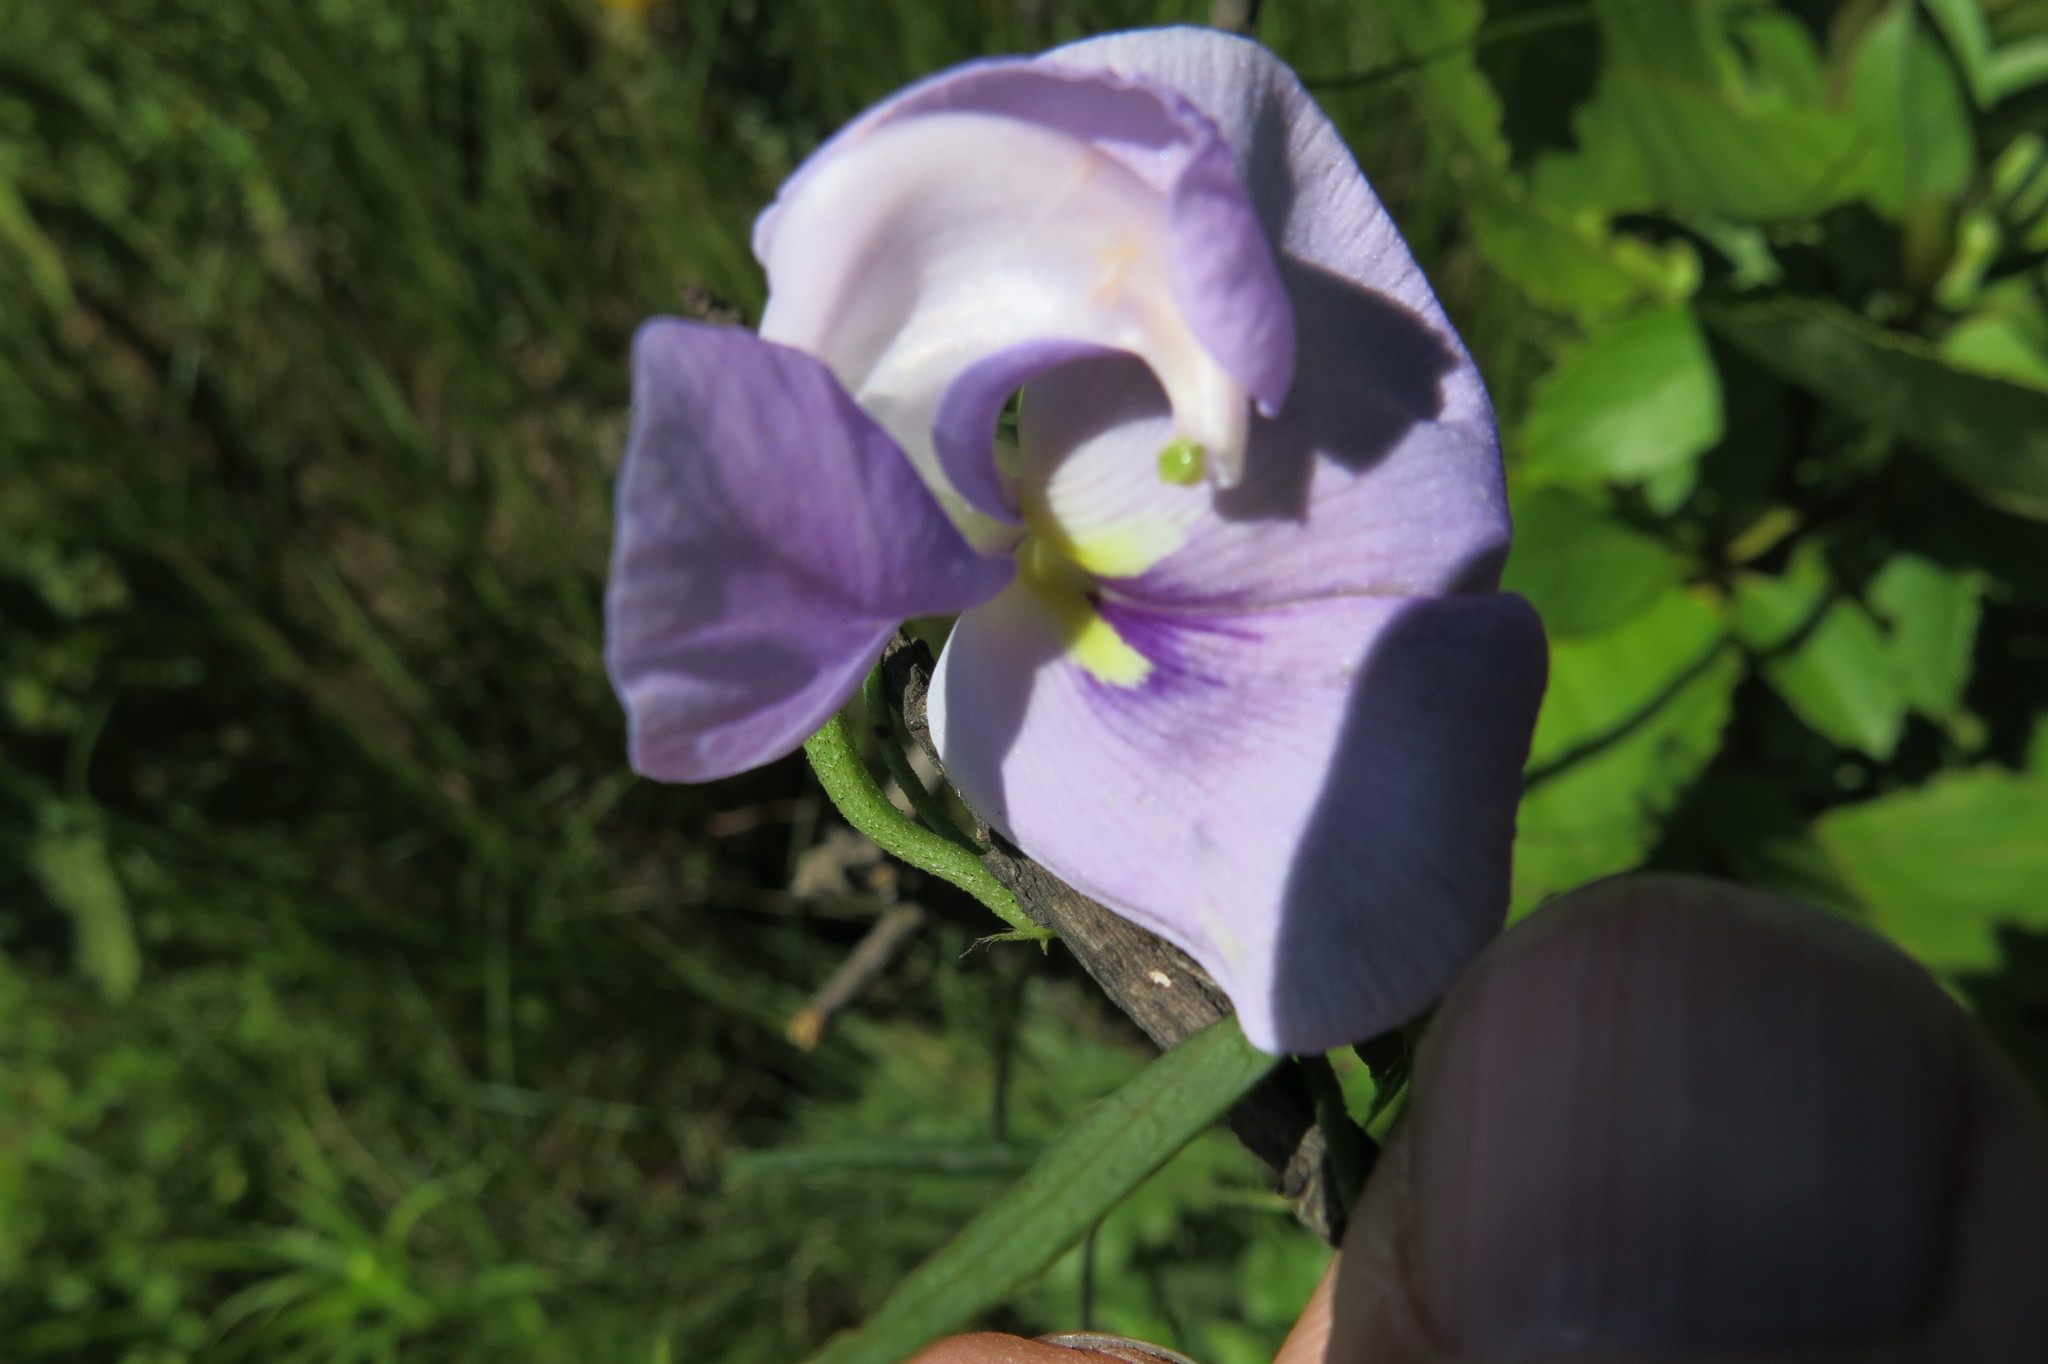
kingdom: Plantae
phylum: Tracheophyta
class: Magnoliopsida
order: Fabales
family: Fabaceae
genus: Vigna
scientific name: Vigna vexillata
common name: Zombi pea
